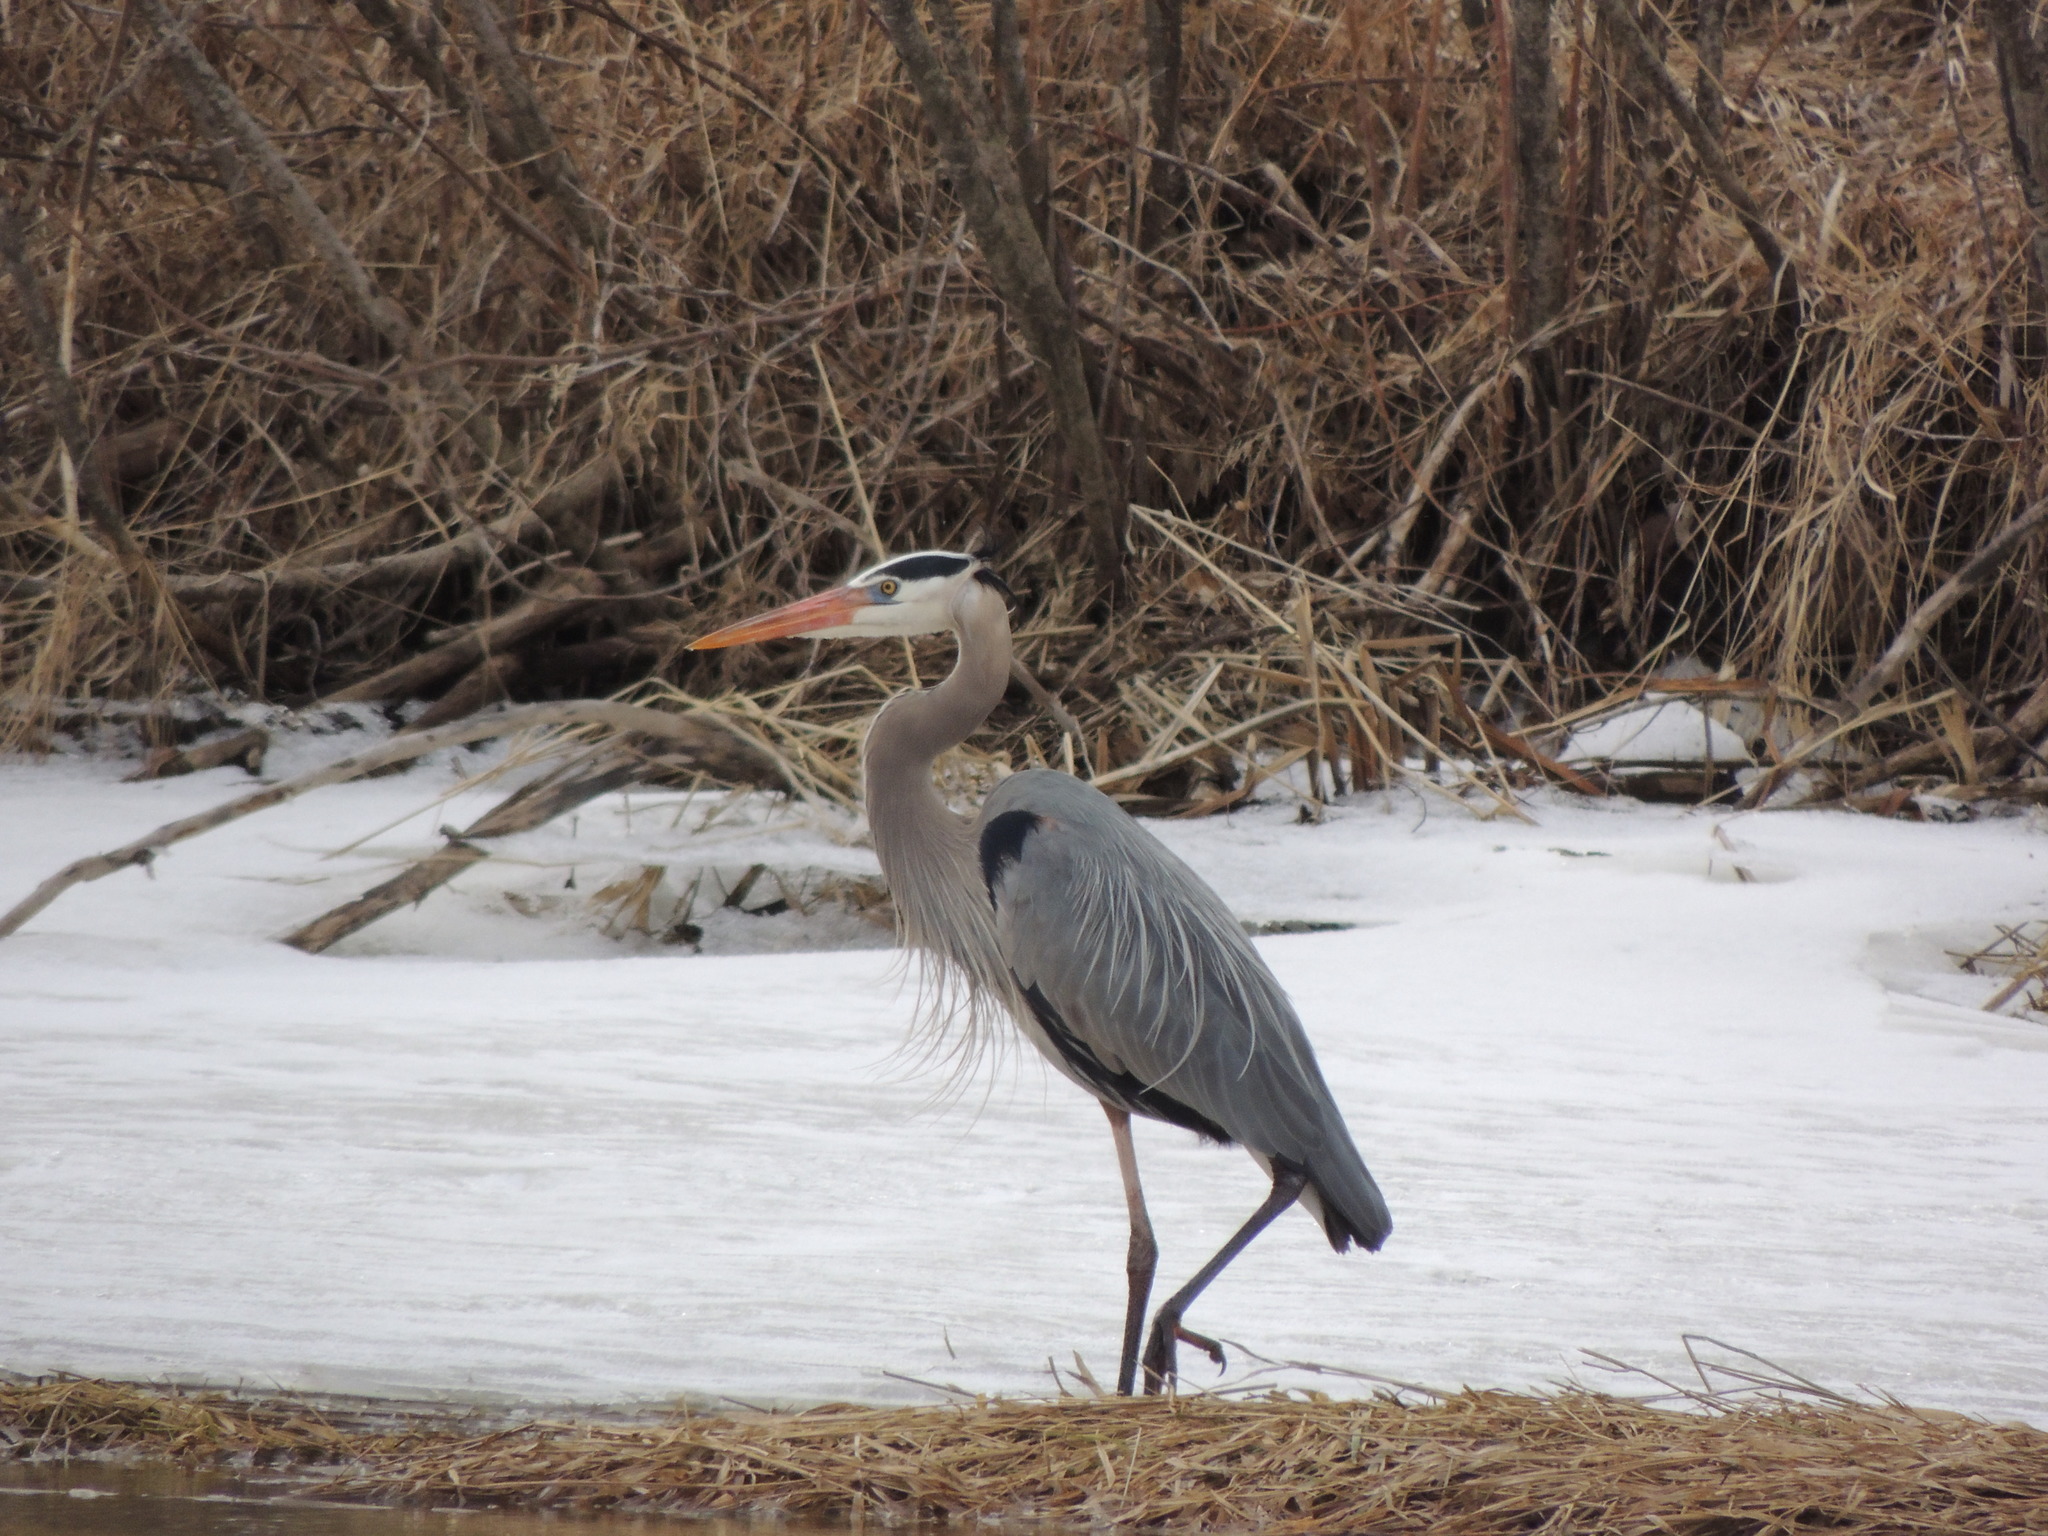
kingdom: Animalia
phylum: Chordata
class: Aves
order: Pelecaniformes
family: Ardeidae
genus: Ardea
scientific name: Ardea herodias
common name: Great blue heron
